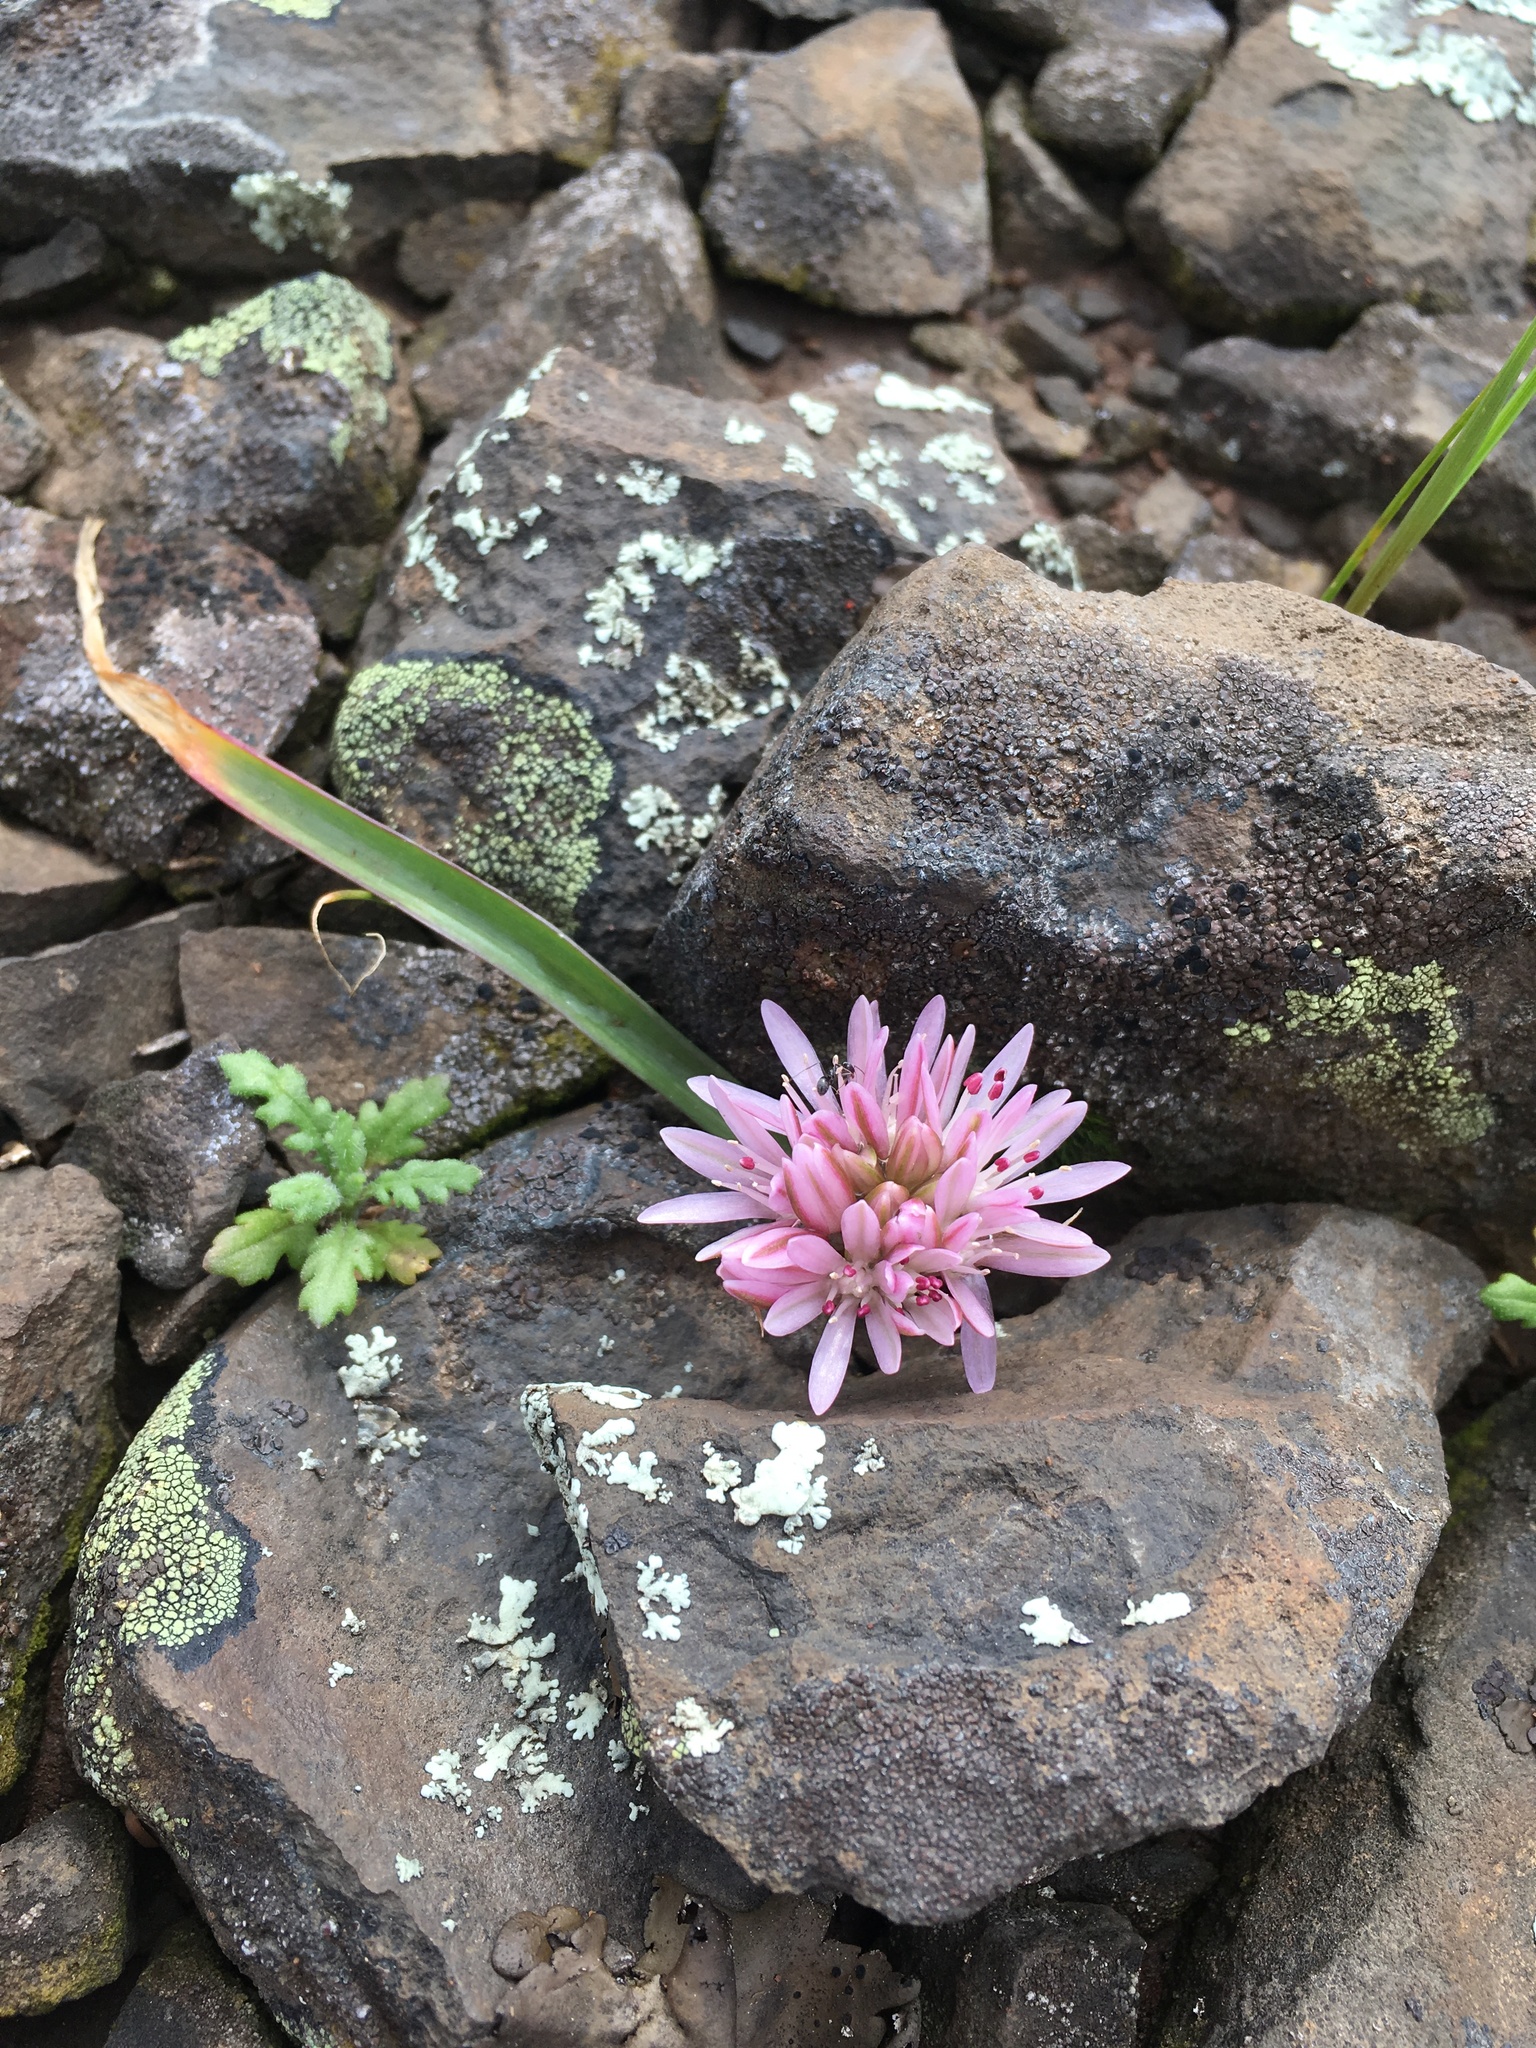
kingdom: Plantae
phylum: Tracheophyta
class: Liliopsida
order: Asparagales
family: Amaryllidaceae
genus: Allium
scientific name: Allium cratericola
